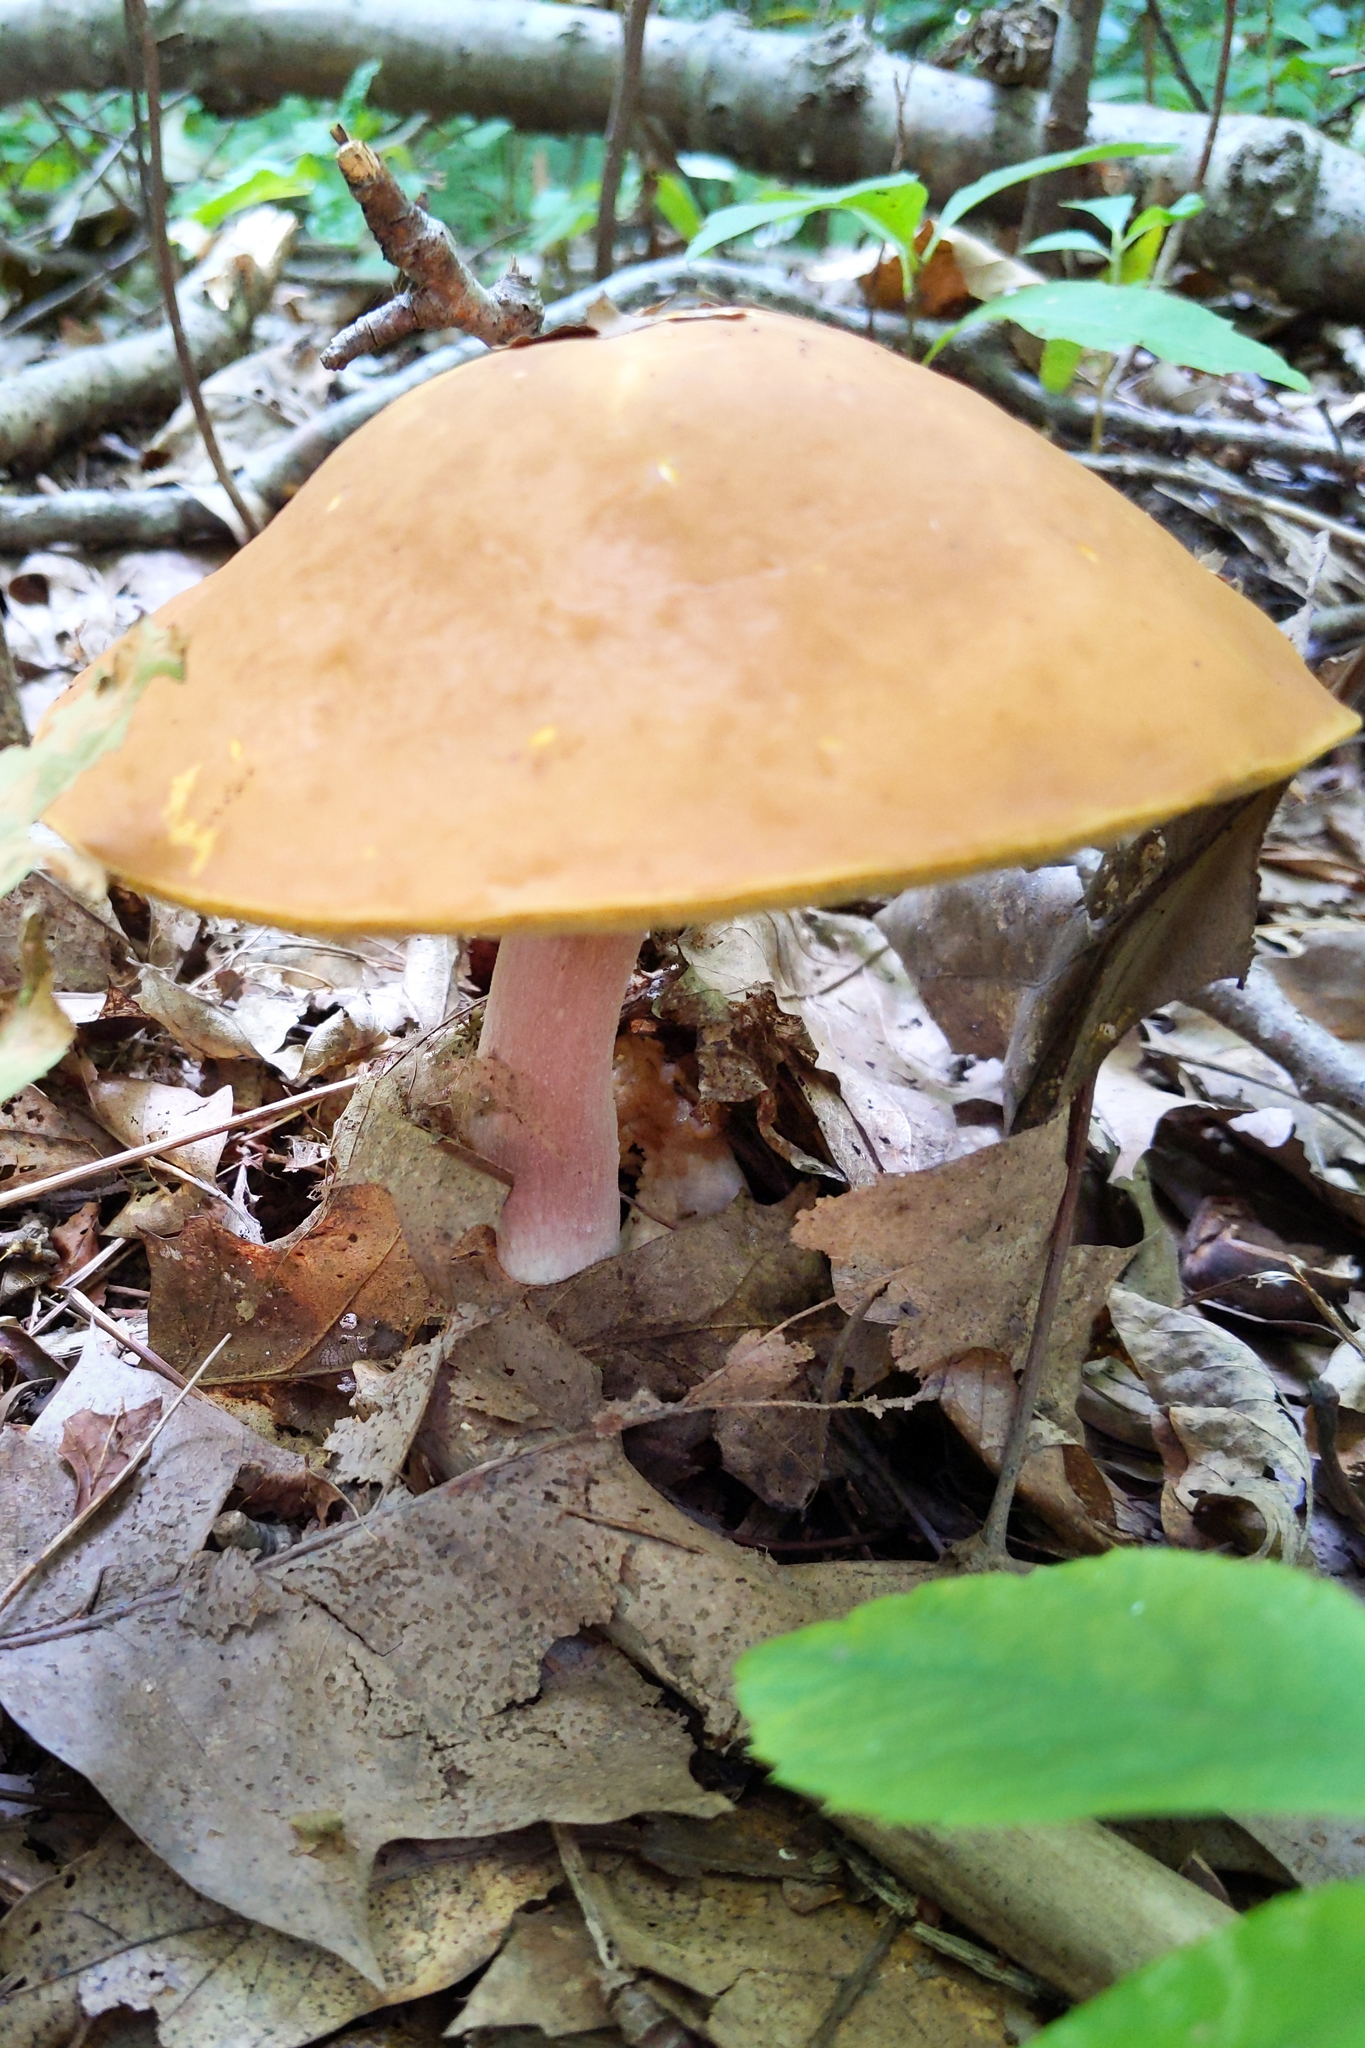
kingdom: Fungi
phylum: Basidiomycota
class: Agaricomycetes
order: Boletales
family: Boletaceae
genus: Xanthoconium
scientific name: Xanthoconium separans
